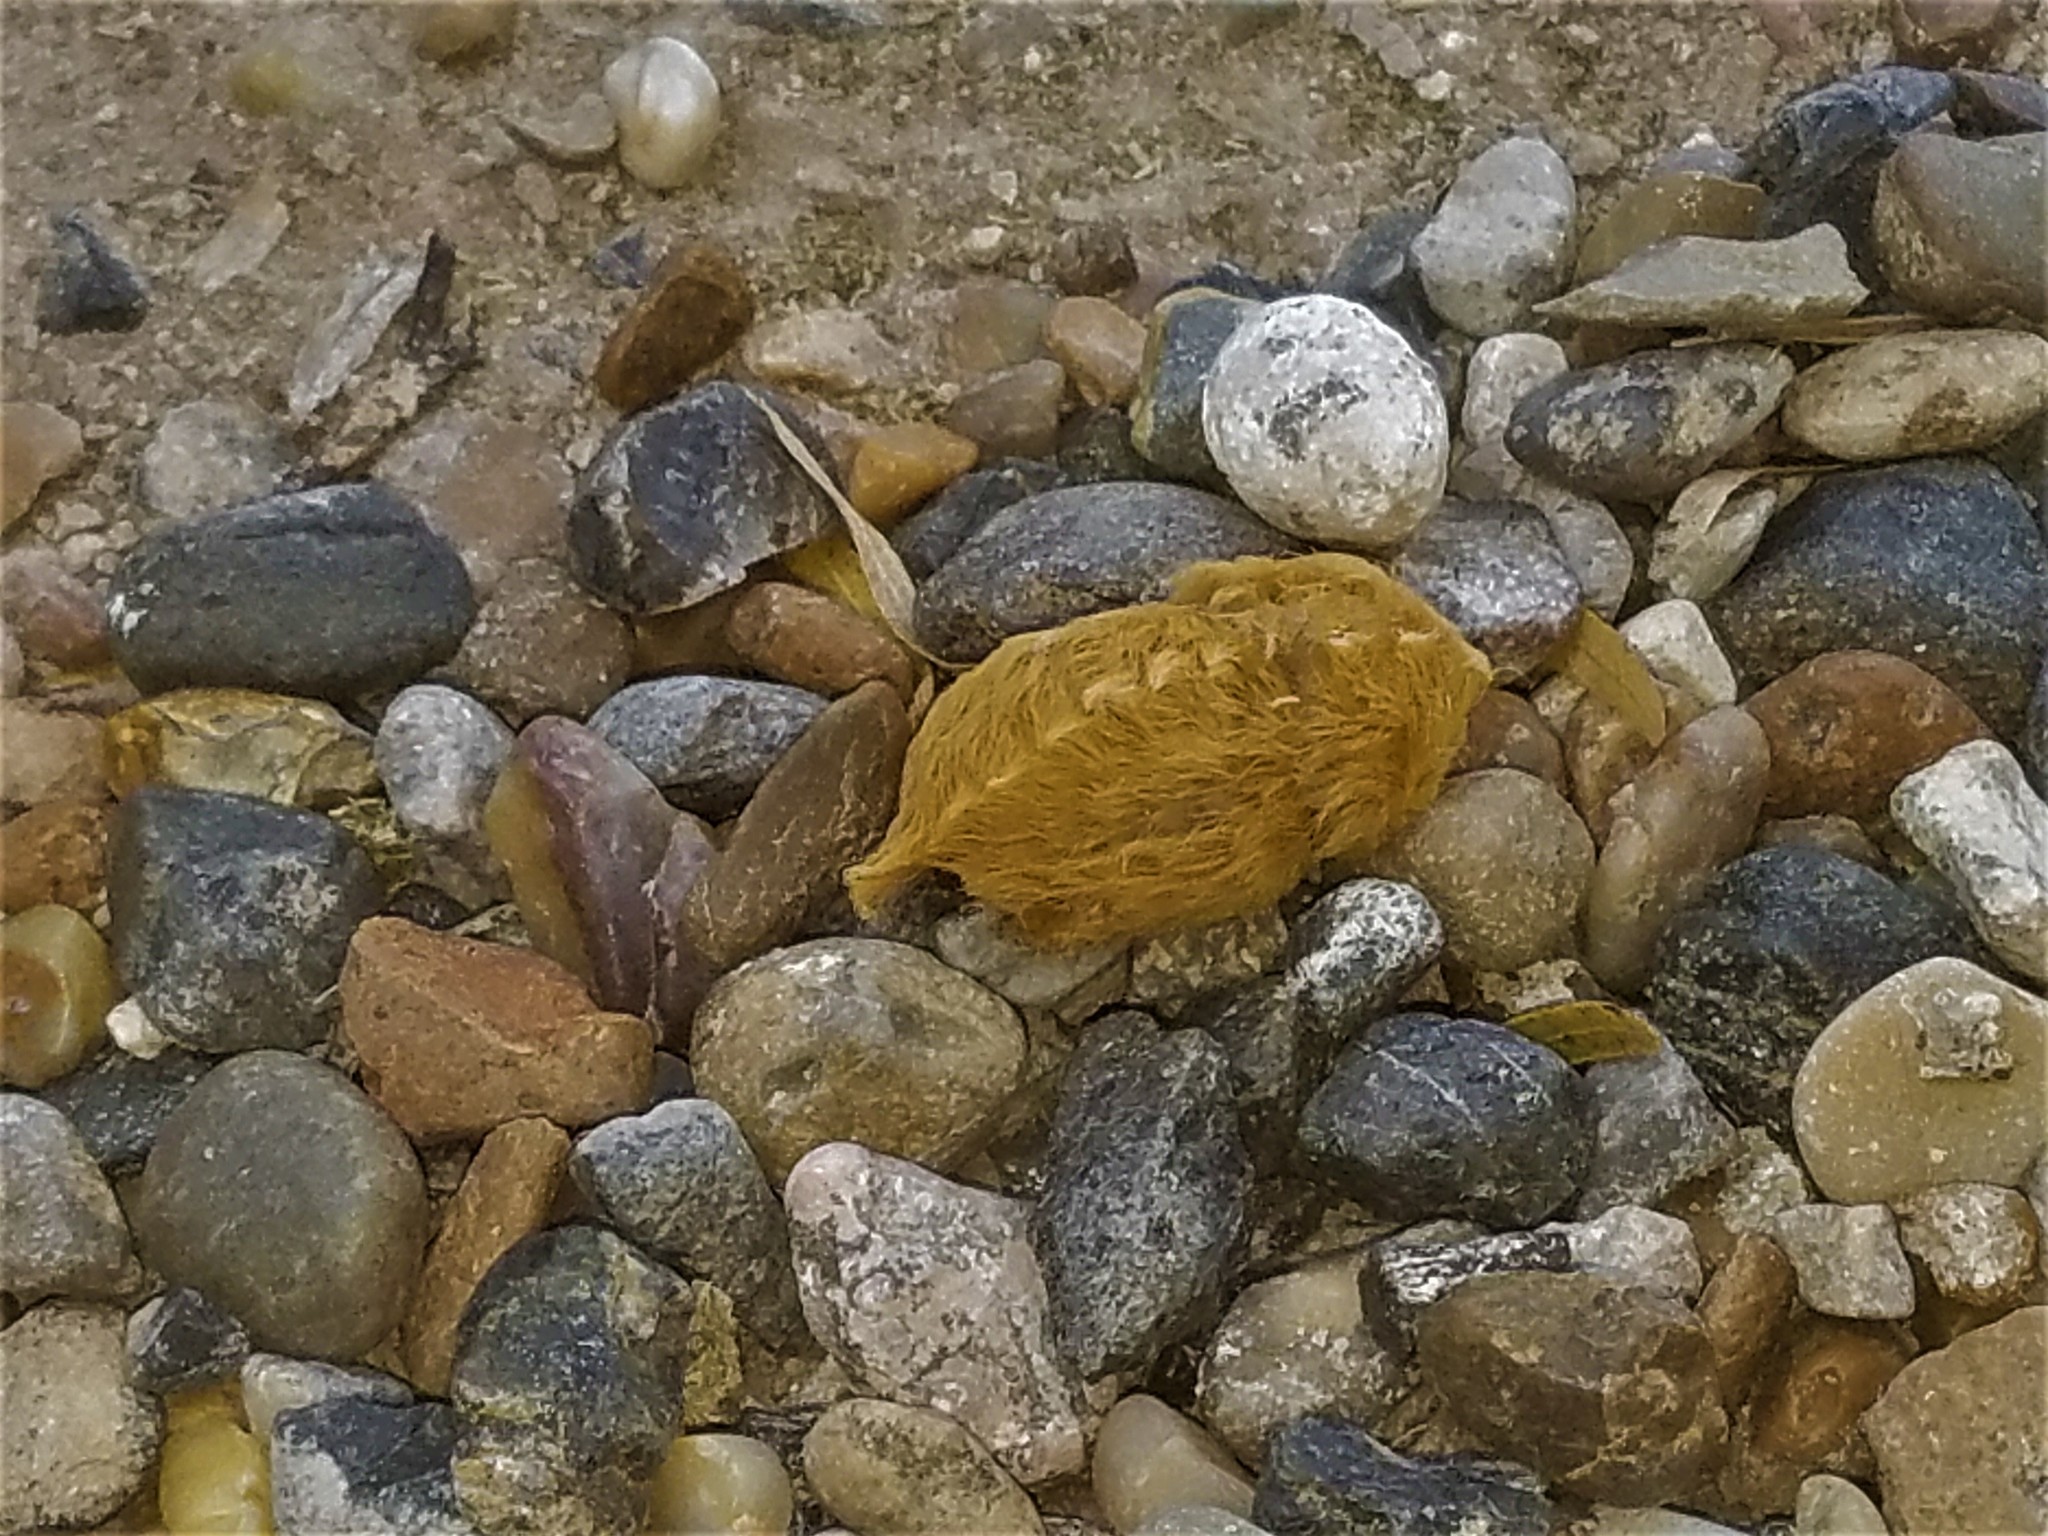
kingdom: Animalia
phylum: Arthropoda
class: Insecta
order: Lepidoptera
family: Megalopygidae
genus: Megalopyge
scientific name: Megalopyge opercularis
